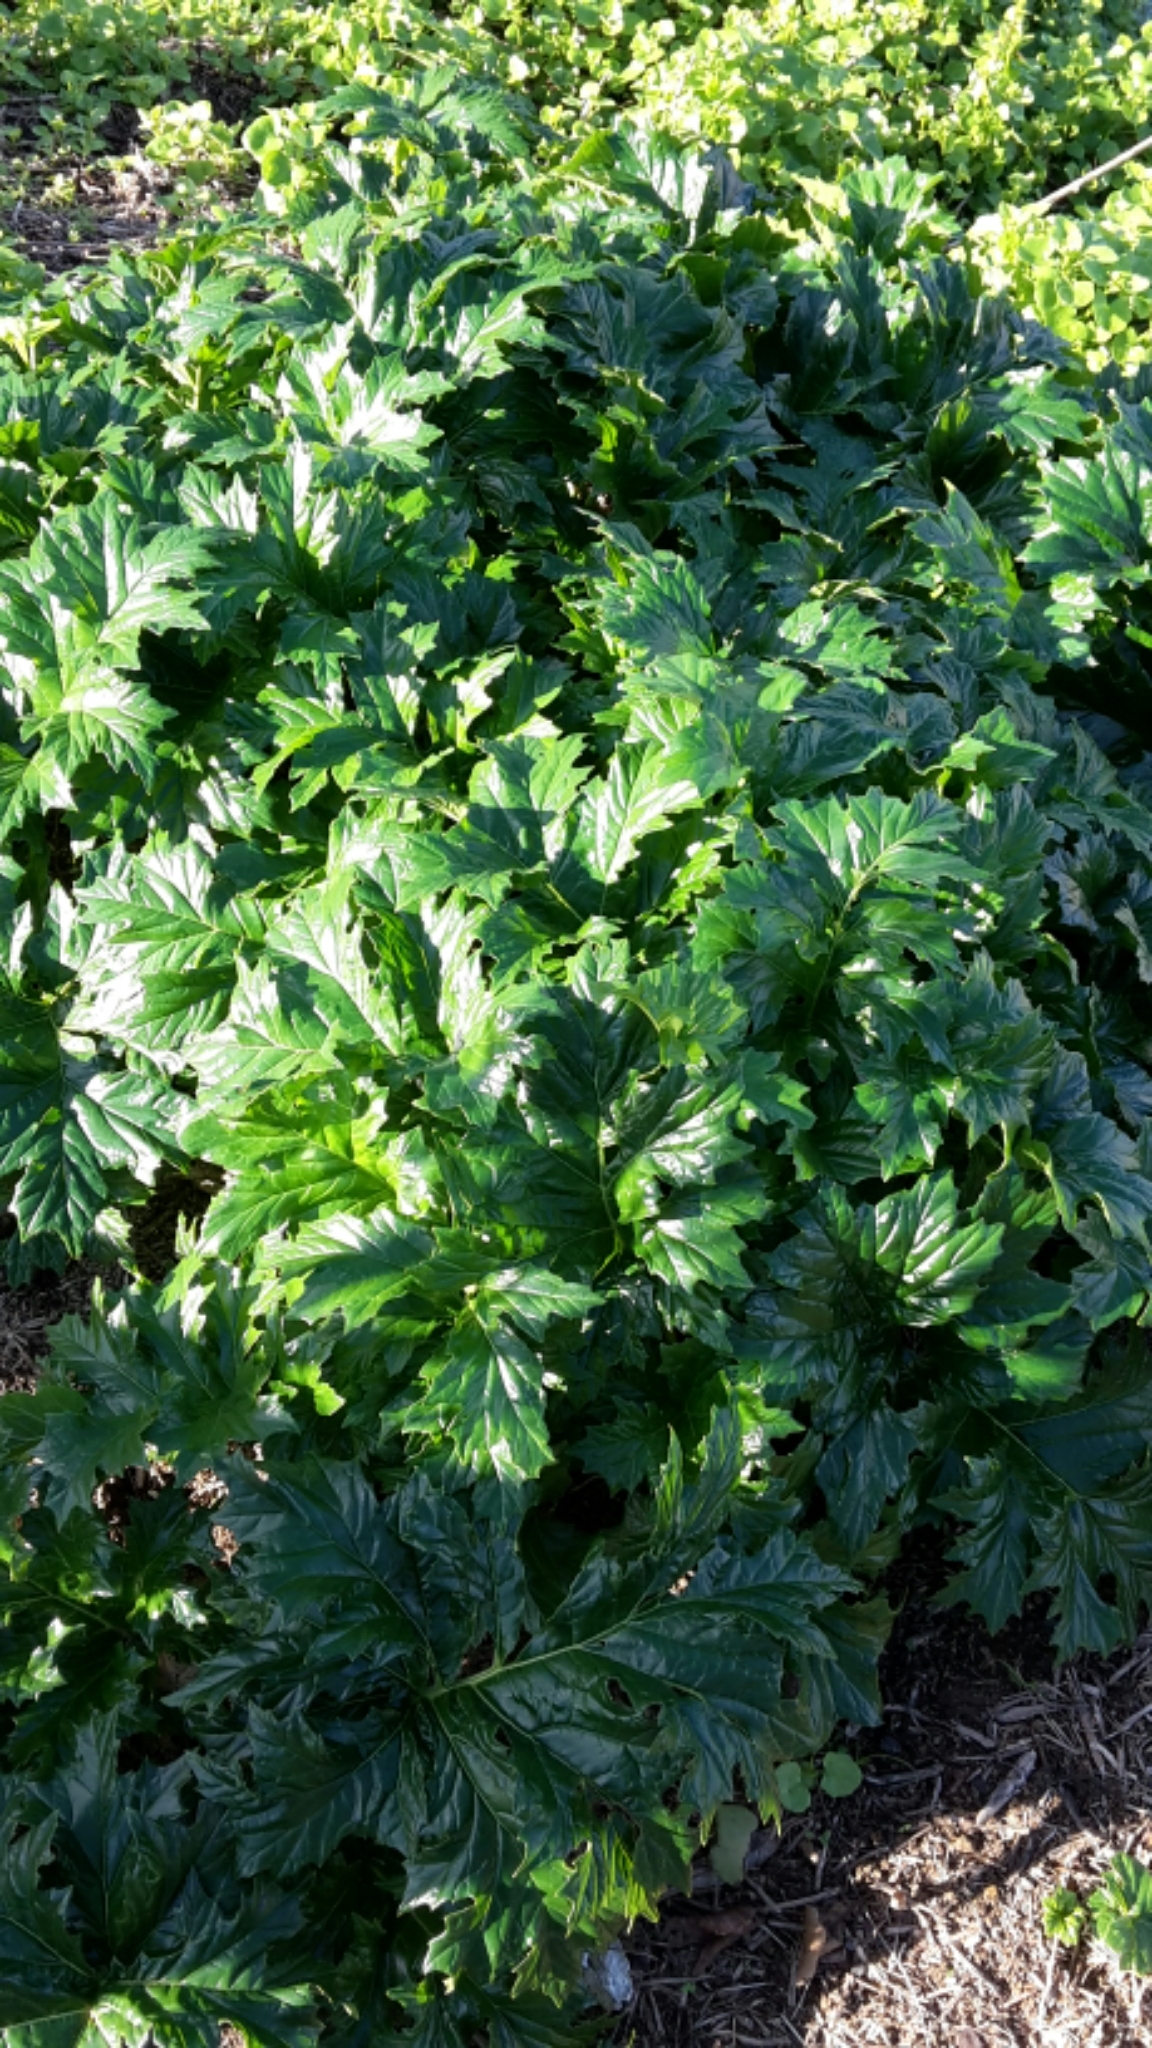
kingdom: Plantae
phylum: Tracheophyta
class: Magnoliopsida
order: Lamiales
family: Acanthaceae
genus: Acanthus
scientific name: Acanthus mollis
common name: Bear's-breech
